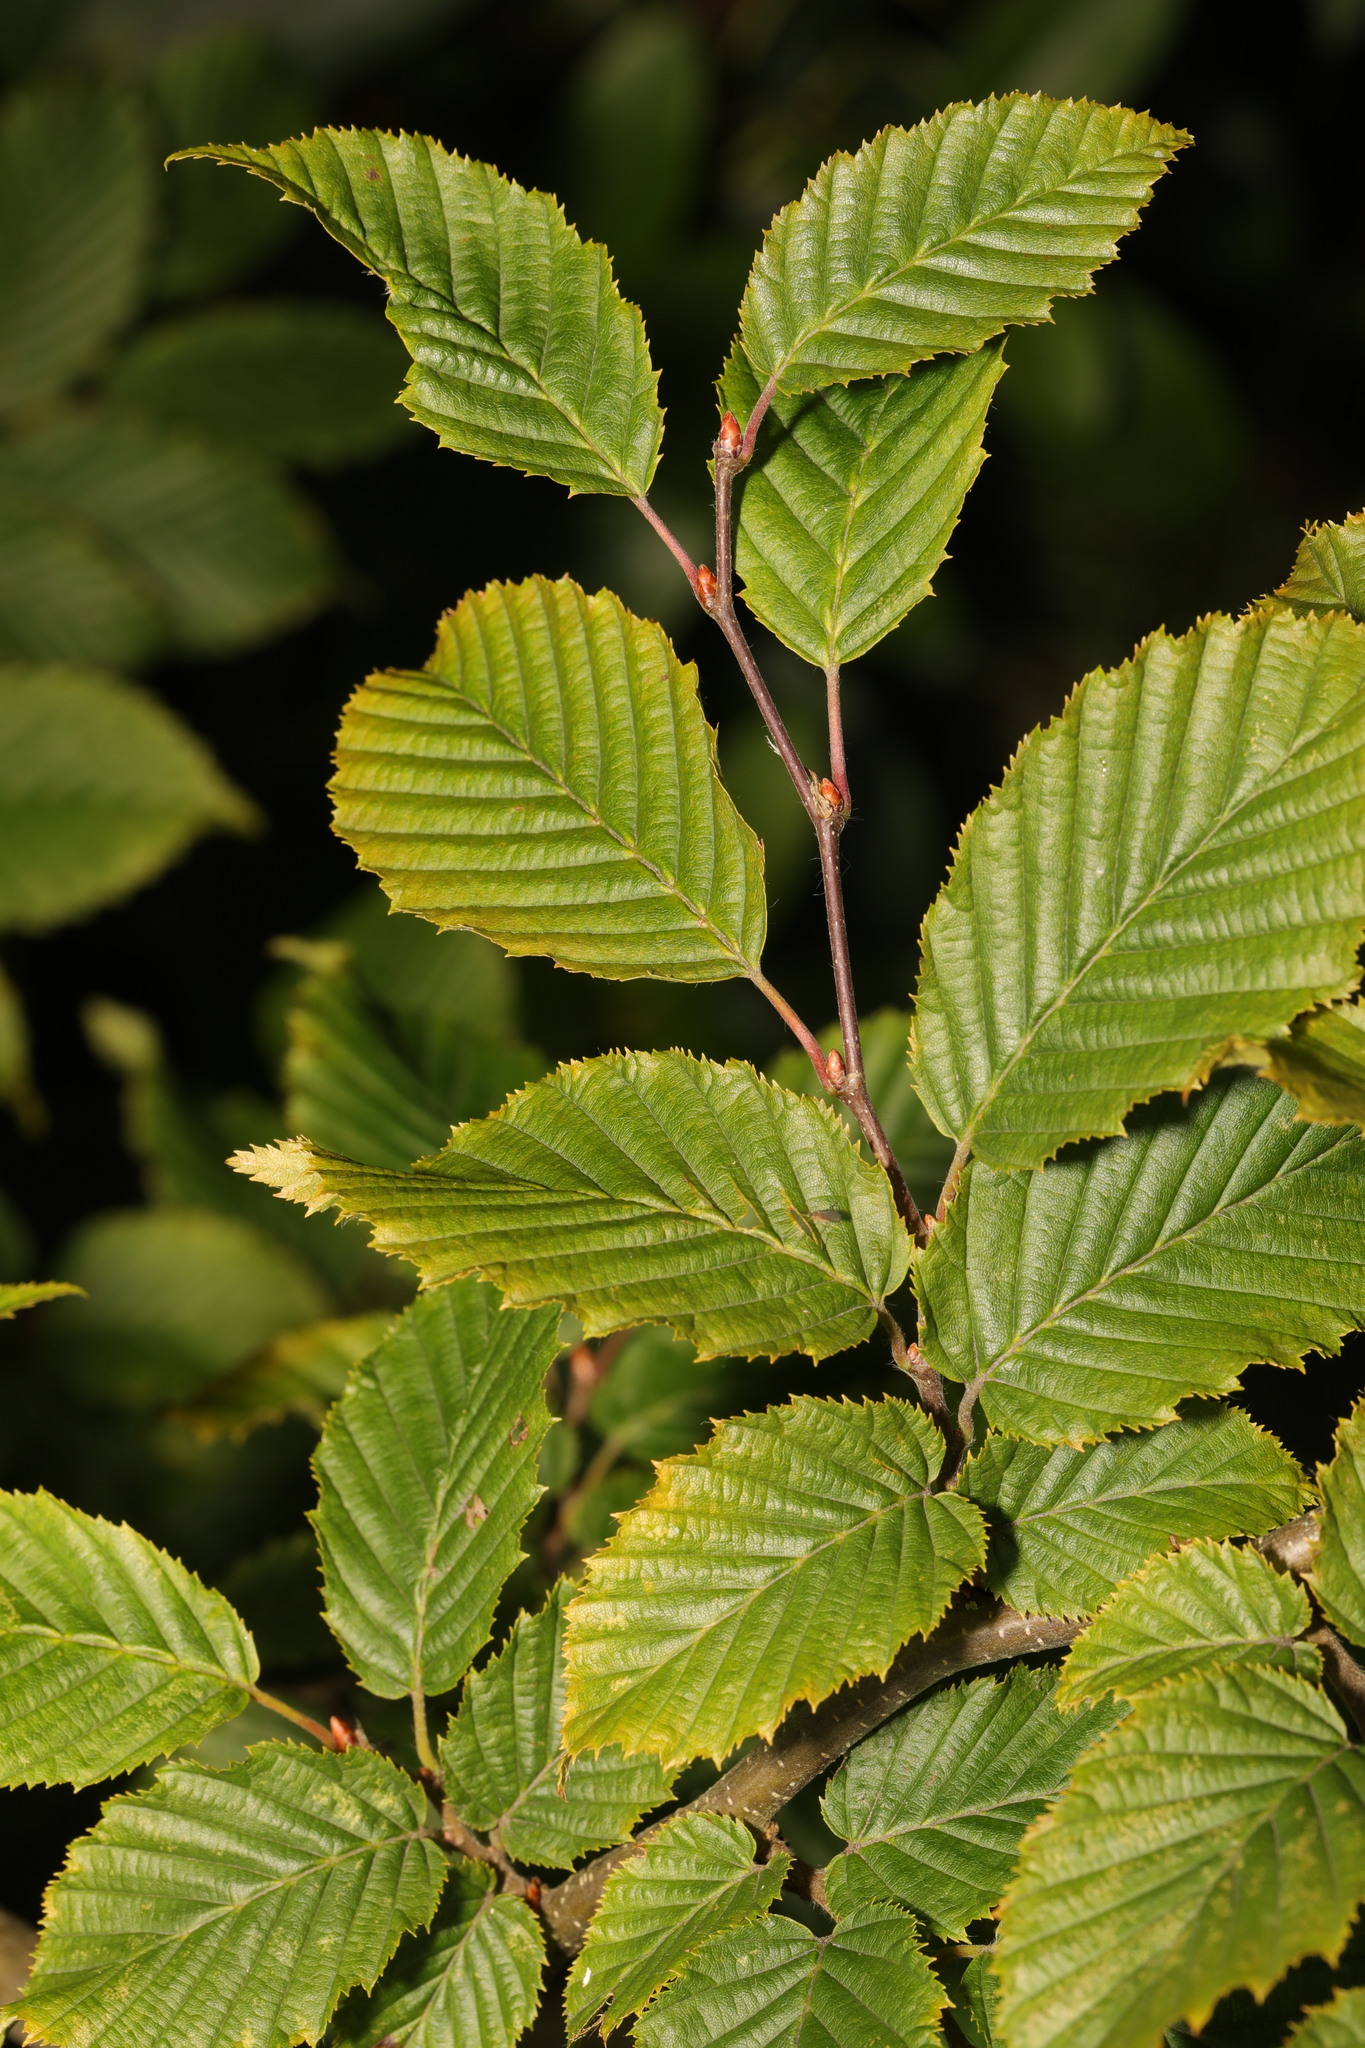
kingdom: Plantae
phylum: Tracheophyta
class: Magnoliopsida
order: Fagales
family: Betulaceae
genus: Carpinus
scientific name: Carpinus betulus
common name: Hornbeam
